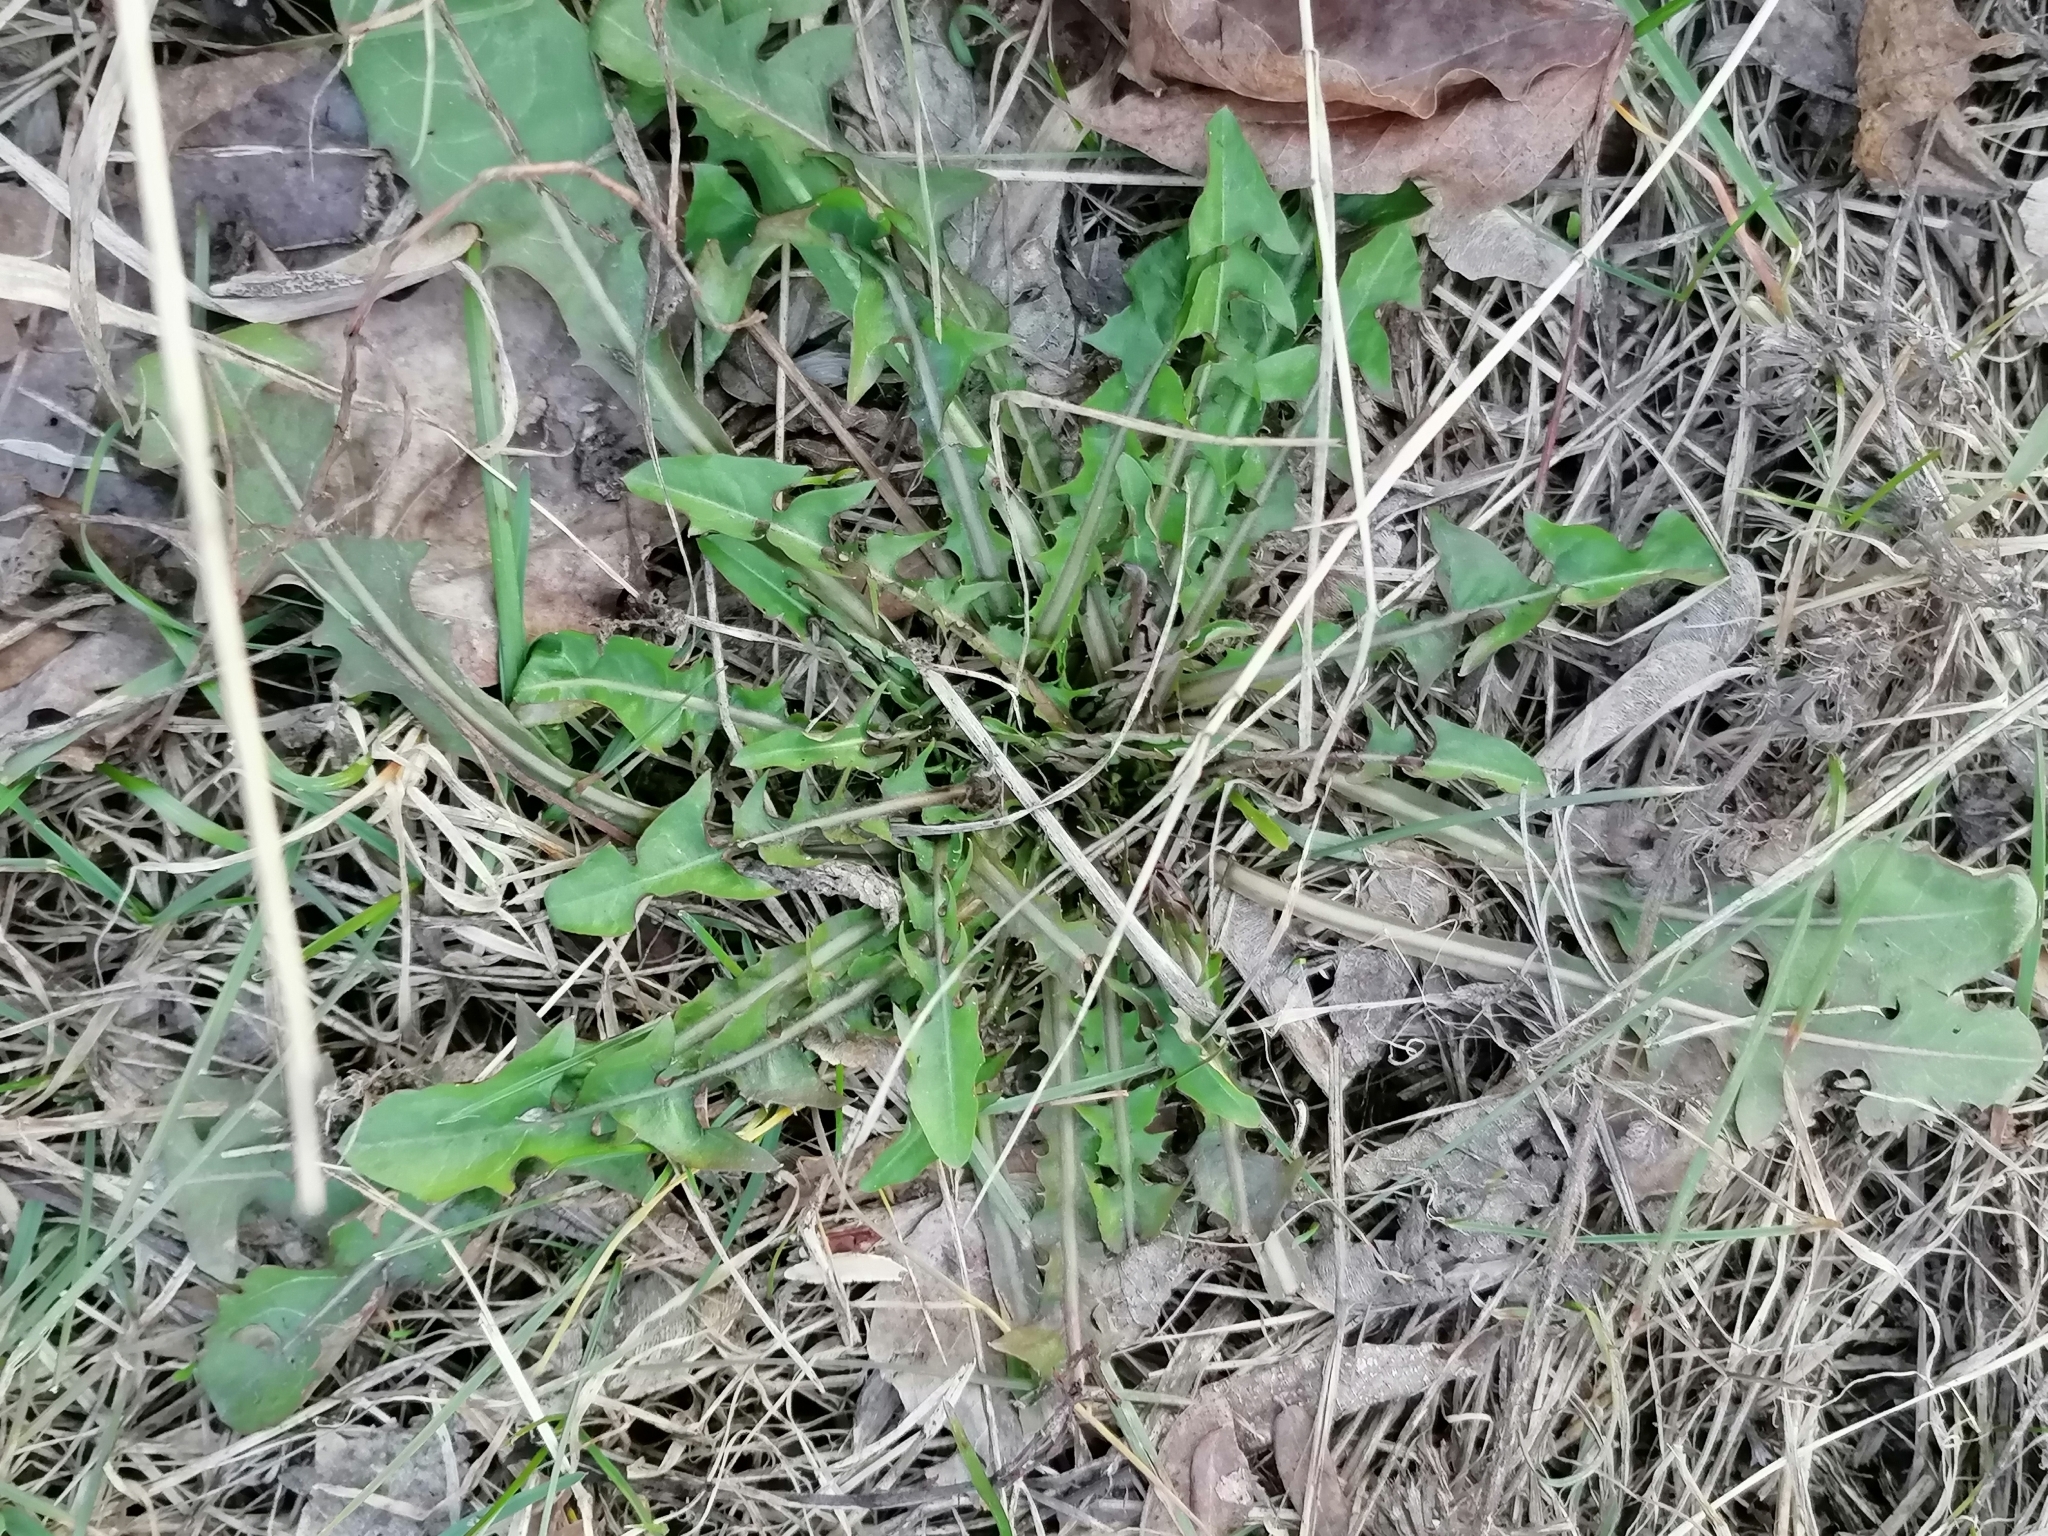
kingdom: Plantae
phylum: Tracheophyta
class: Magnoliopsida
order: Brassicales
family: Brassicaceae
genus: Sisymbrium
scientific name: Sisymbrium loeselii
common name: False london-rocket
